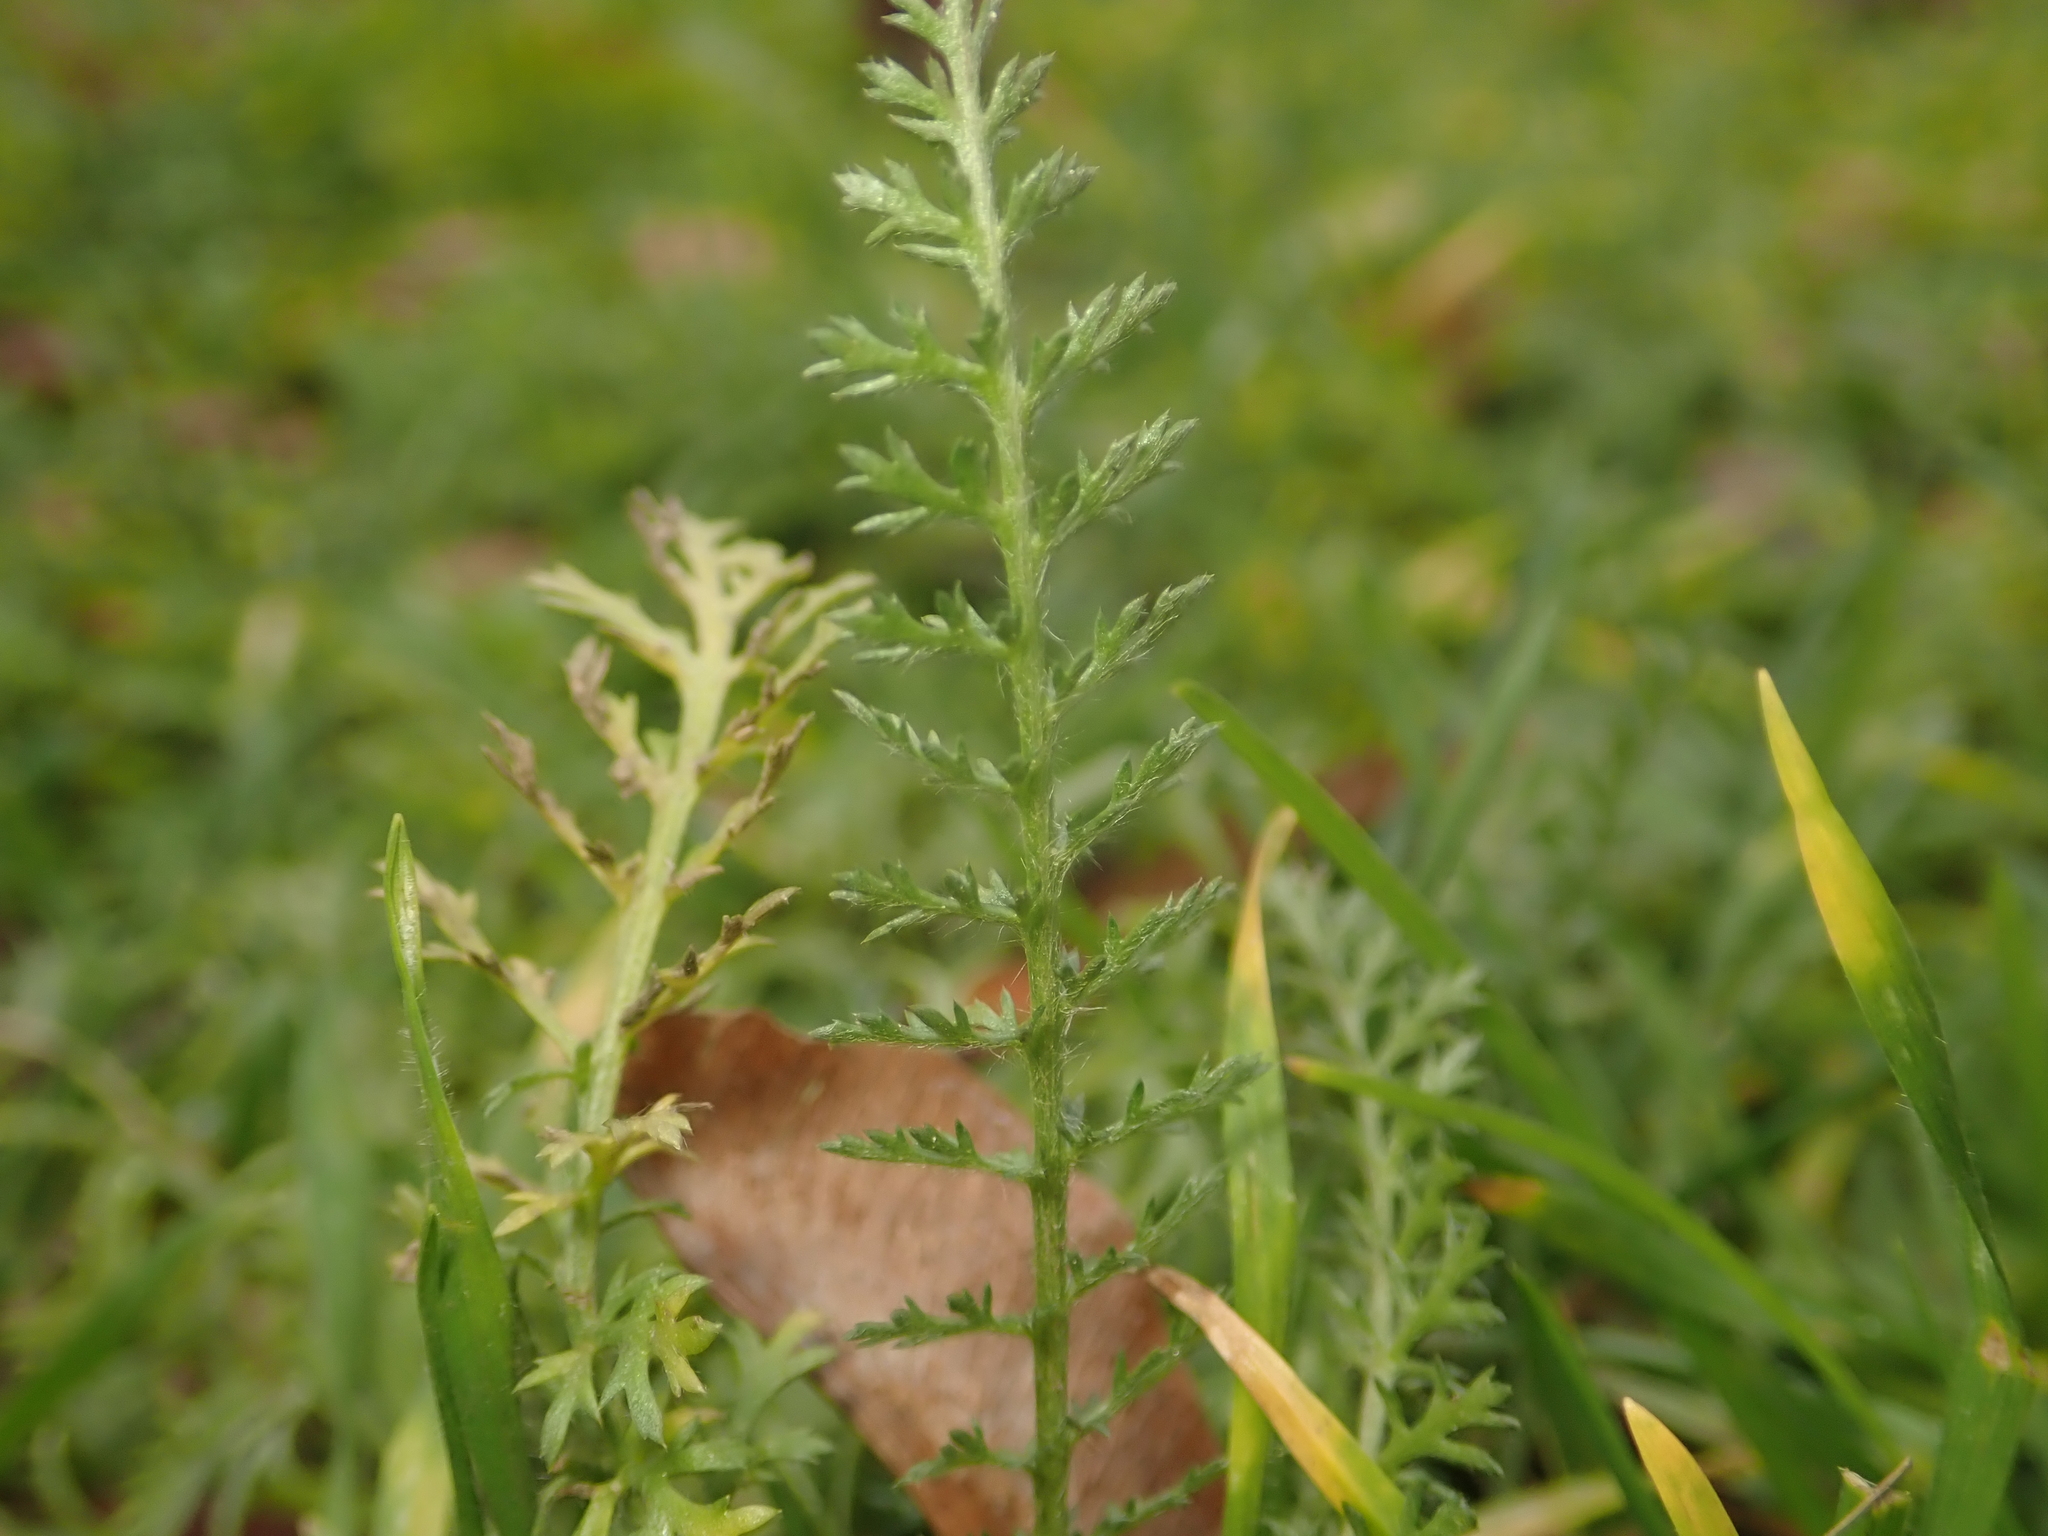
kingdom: Plantae
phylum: Tracheophyta
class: Magnoliopsida
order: Asterales
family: Asteraceae
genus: Achillea
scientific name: Achillea millefolium
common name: Yarrow
